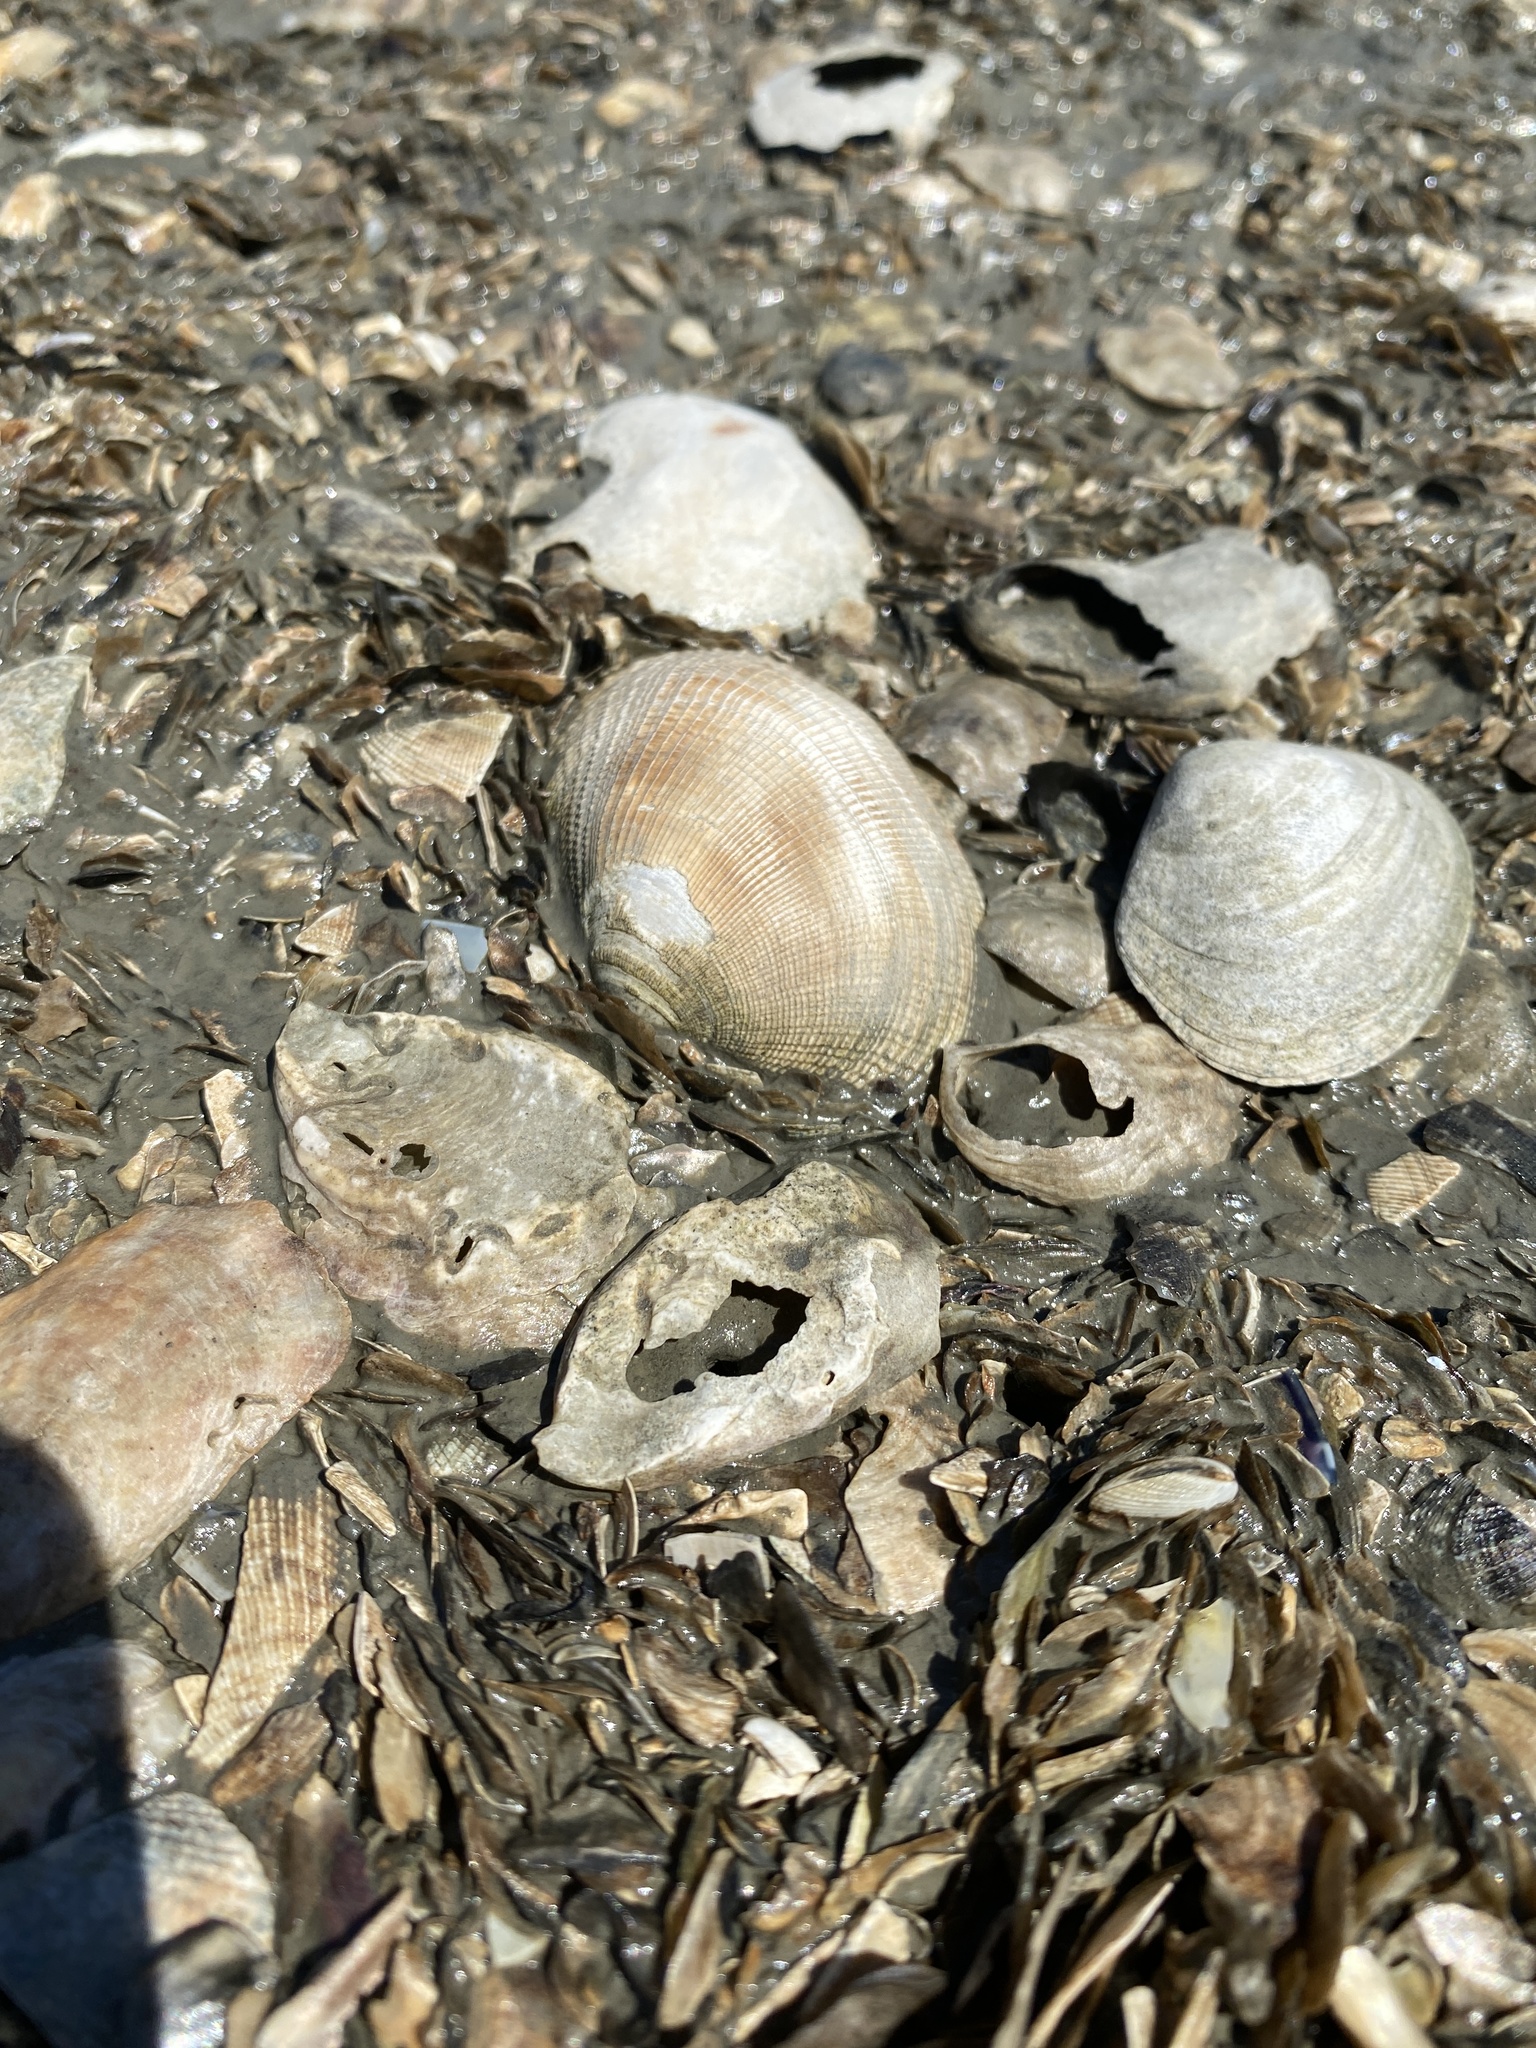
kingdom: Animalia
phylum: Mollusca
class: Bivalvia
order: Venerida
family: Veneridae
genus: Ruditapes
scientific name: Ruditapes philippinarum
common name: Manila clam
